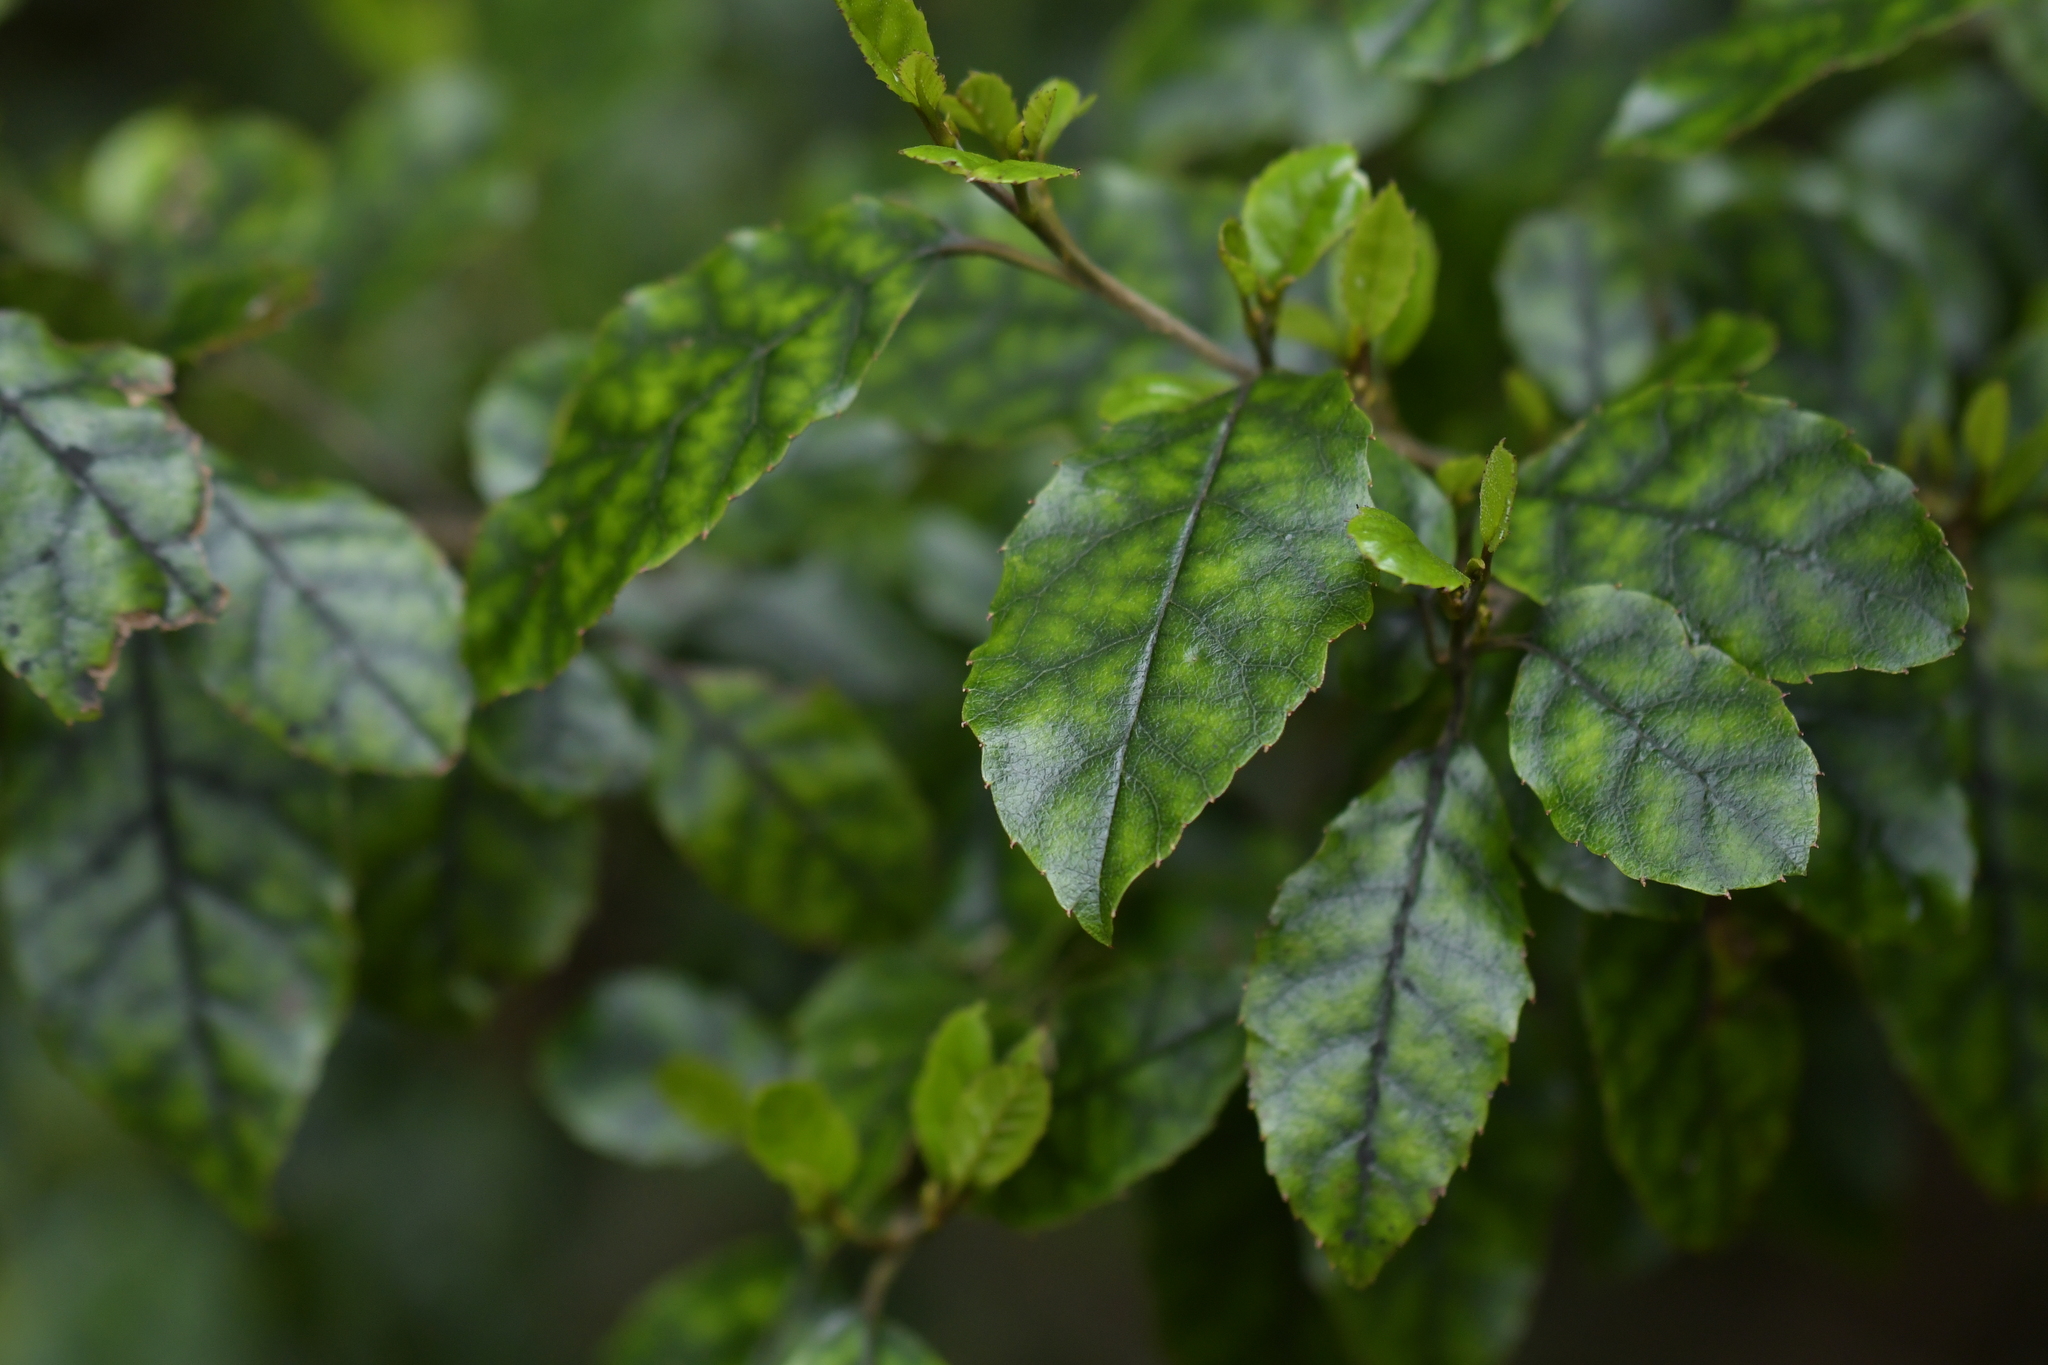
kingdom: Plantae
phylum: Tracheophyta
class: Magnoliopsida
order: Asterales
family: Rousseaceae
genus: Carpodetus
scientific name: Carpodetus serratus
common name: White mapau
